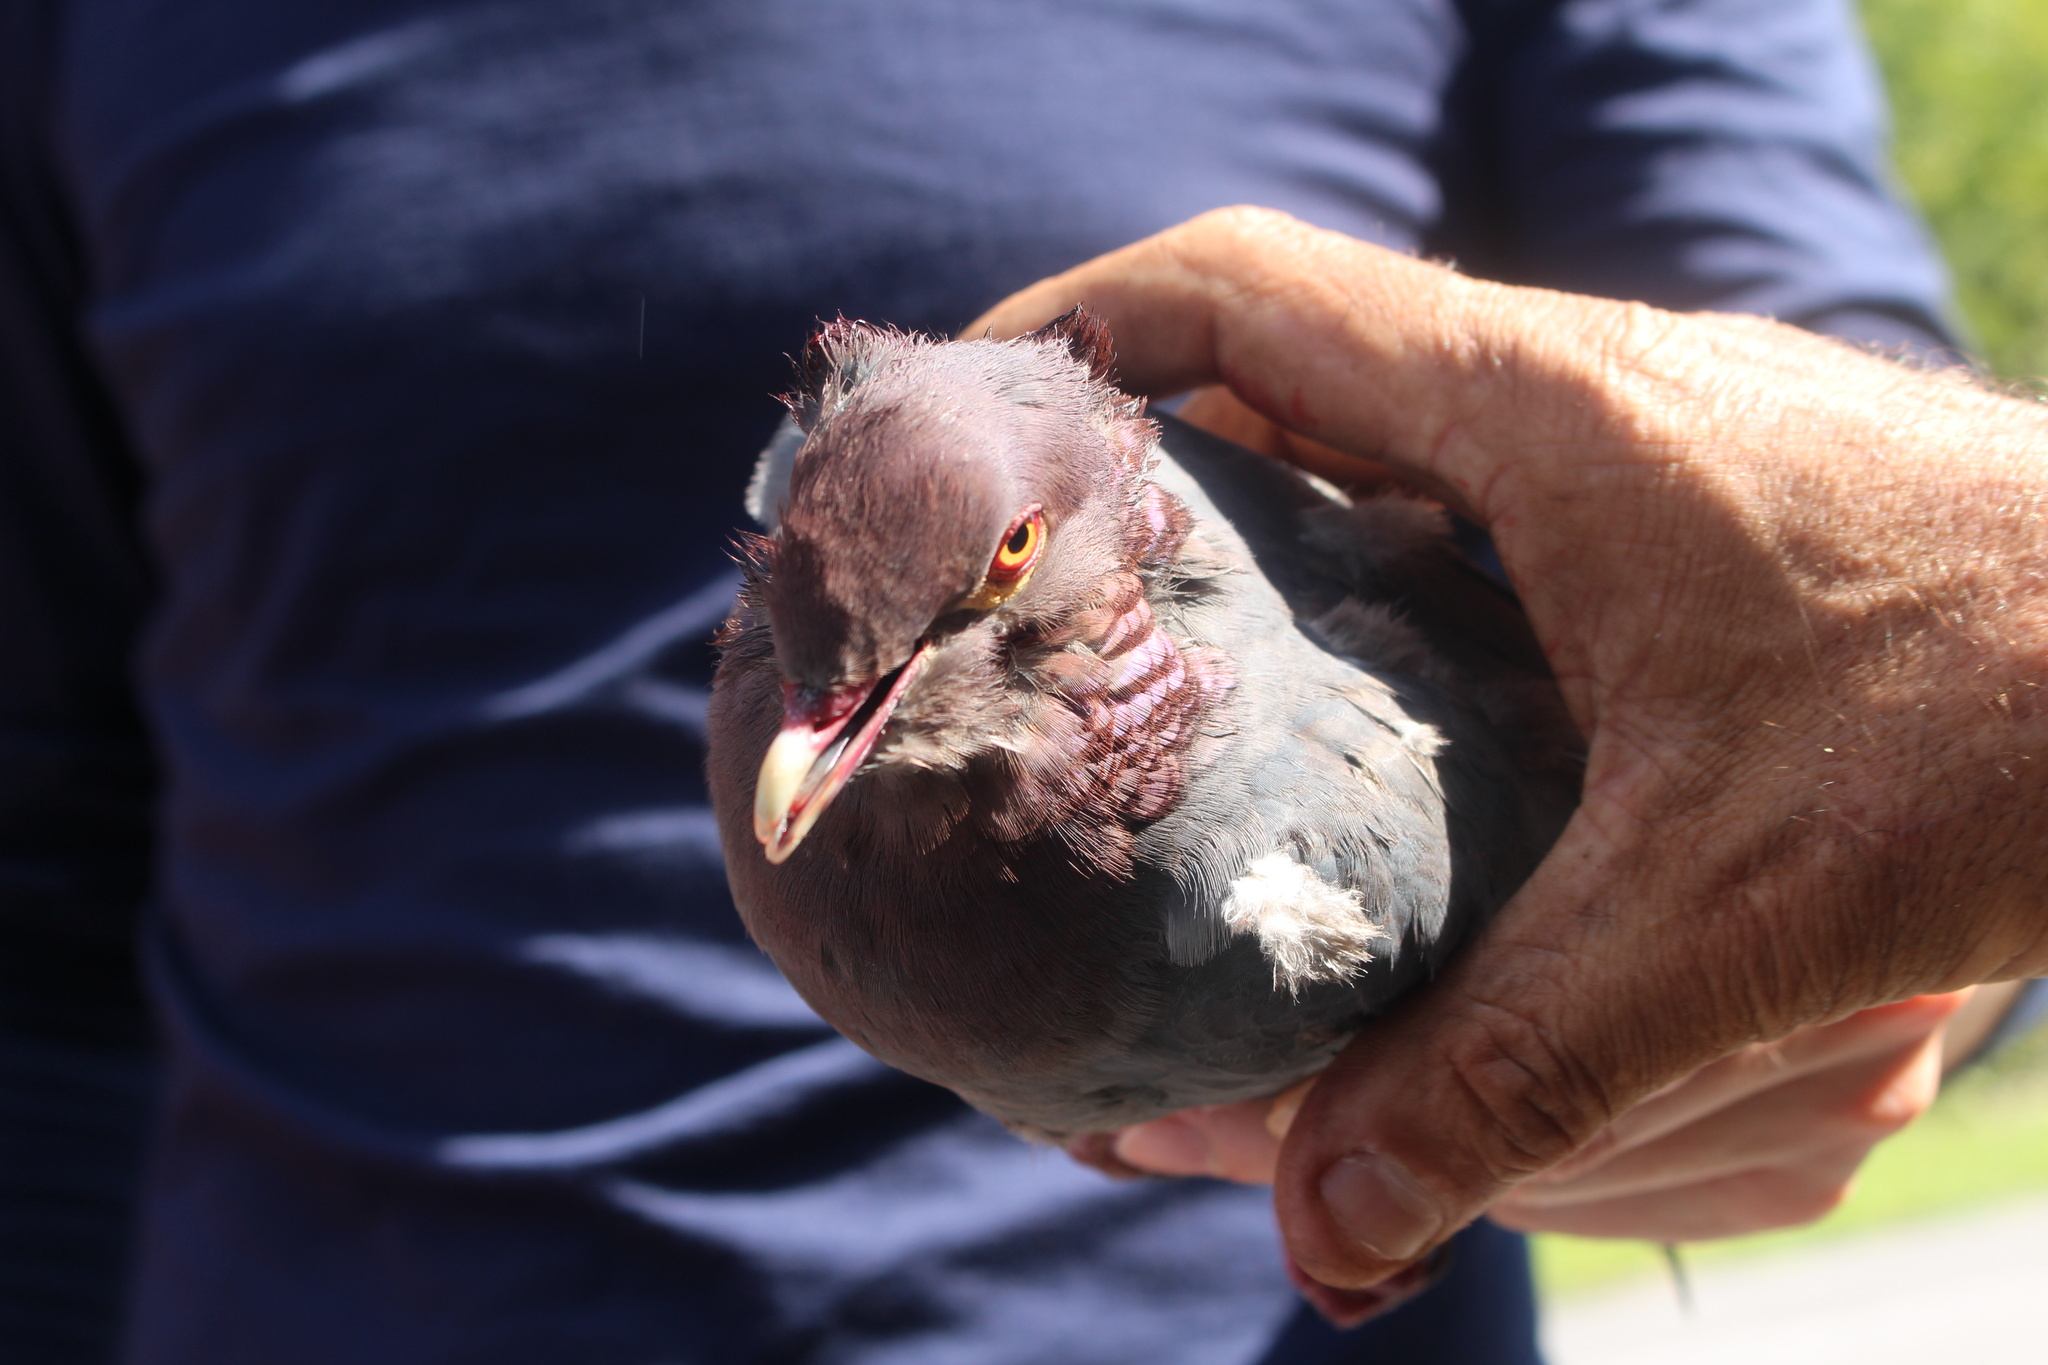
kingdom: Animalia
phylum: Chordata
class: Aves
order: Columbiformes
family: Columbidae
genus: Patagioenas
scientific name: Patagioenas squamosa
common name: Scaly-naped pigeon
